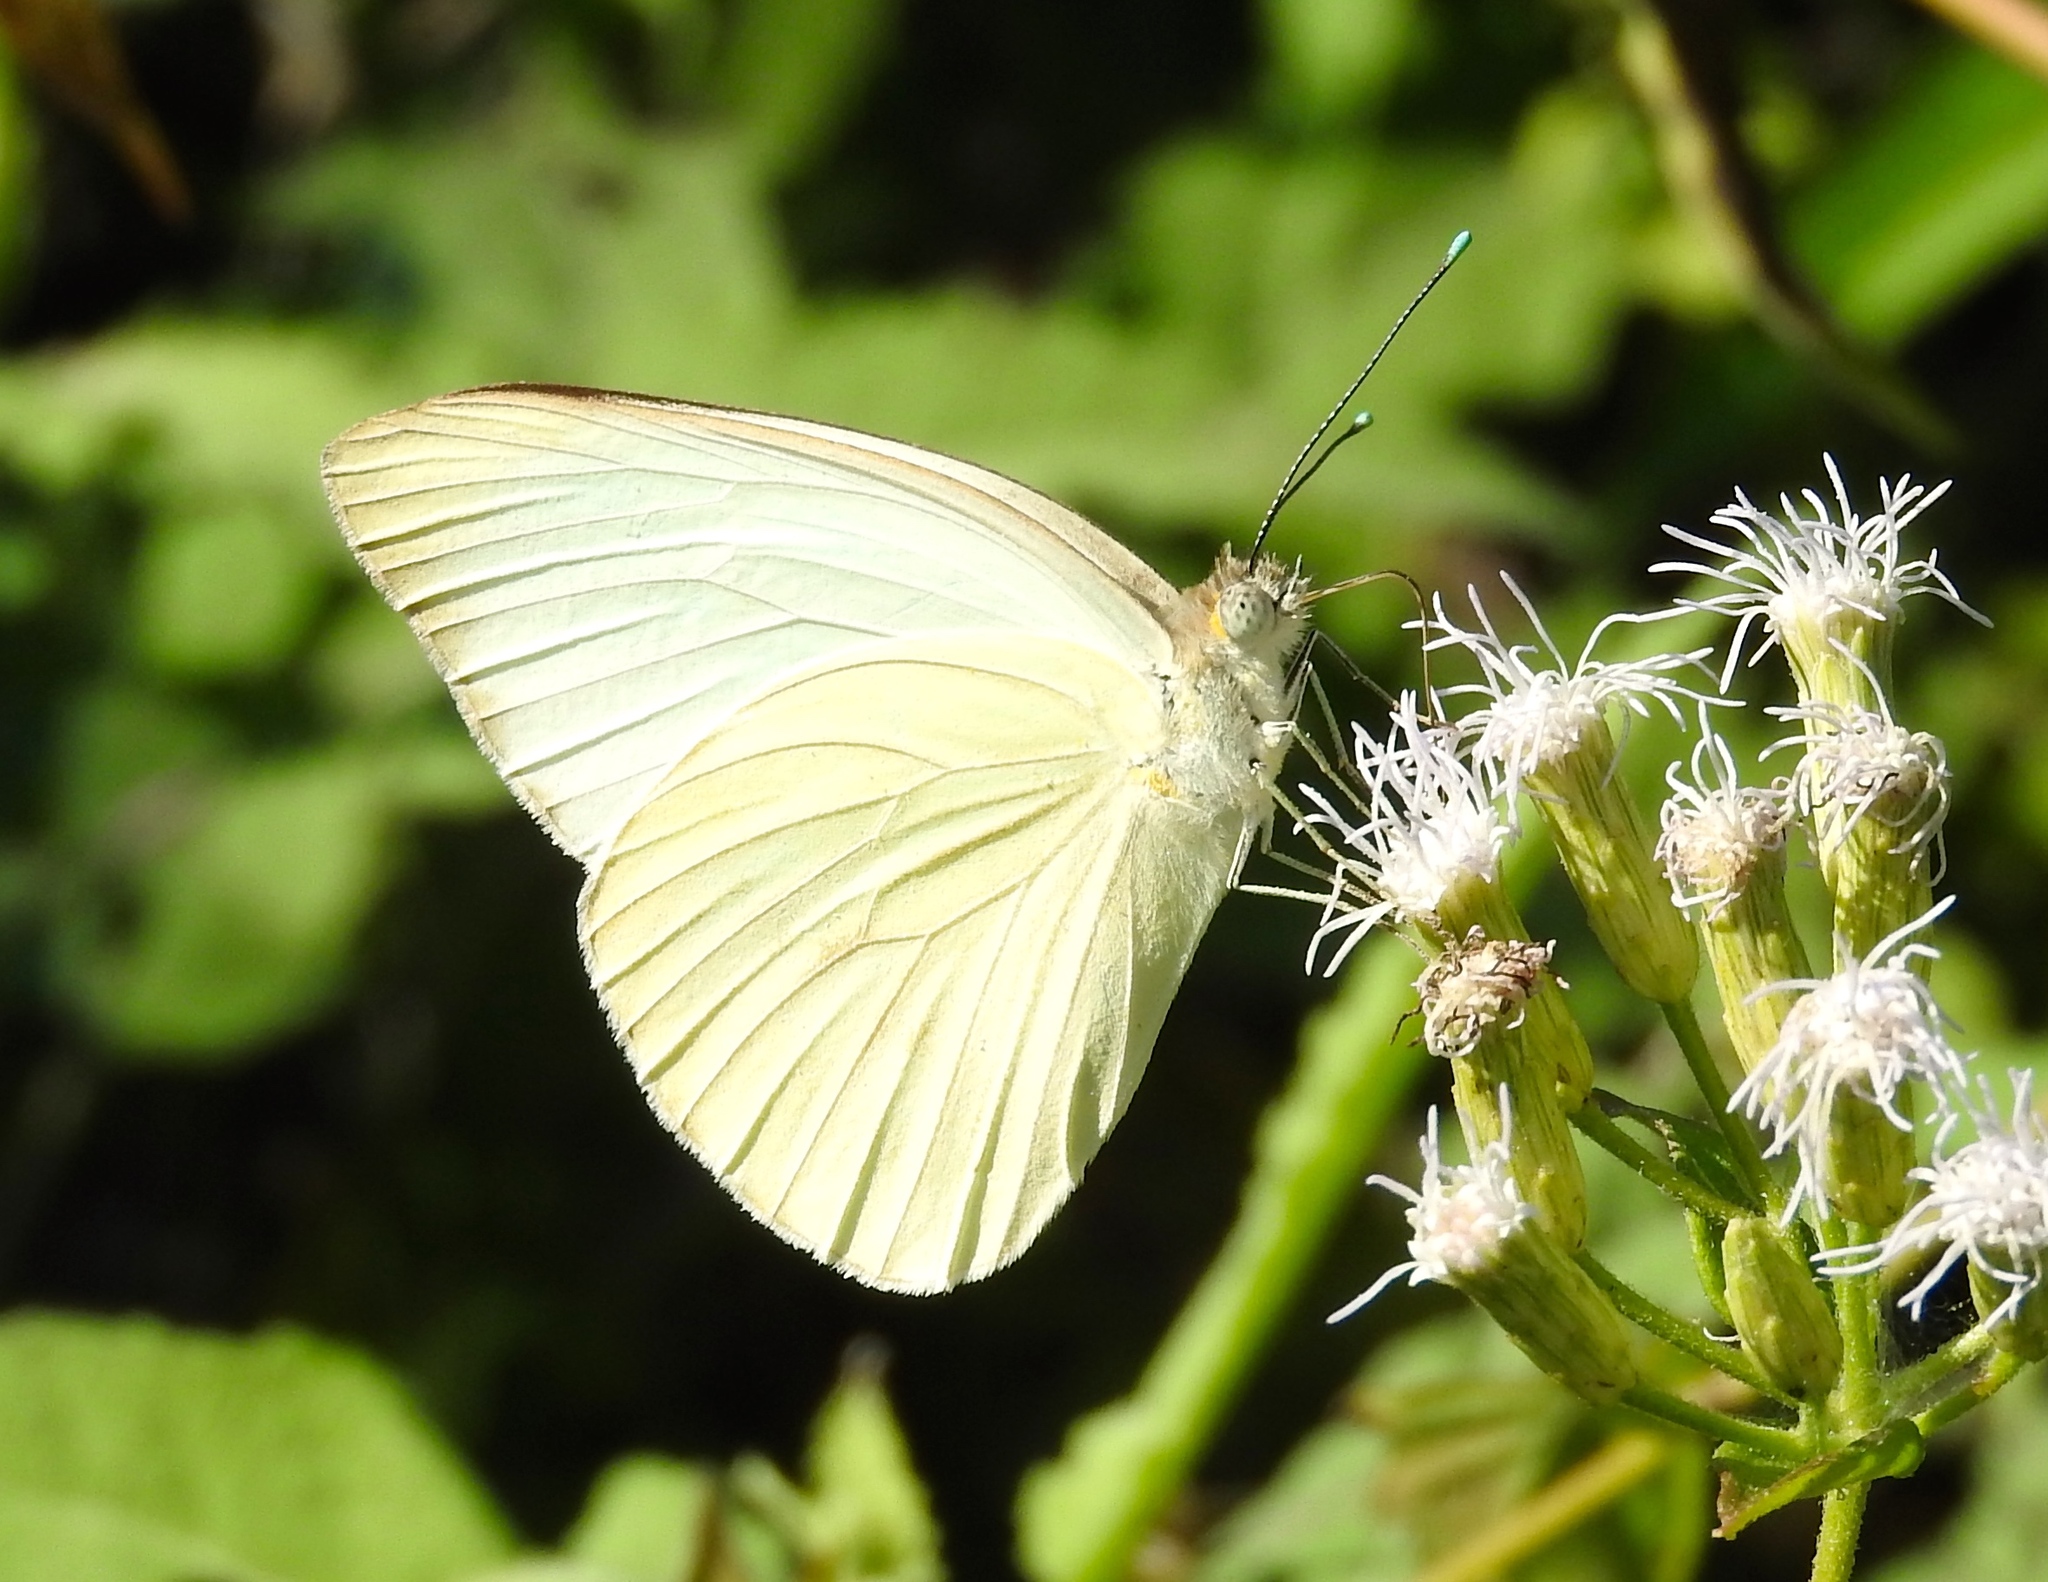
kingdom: Animalia
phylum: Arthropoda
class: Insecta
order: Lepidoptera
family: Pieridae
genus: Ascia
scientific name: Ascia monuste
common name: Great southern white
